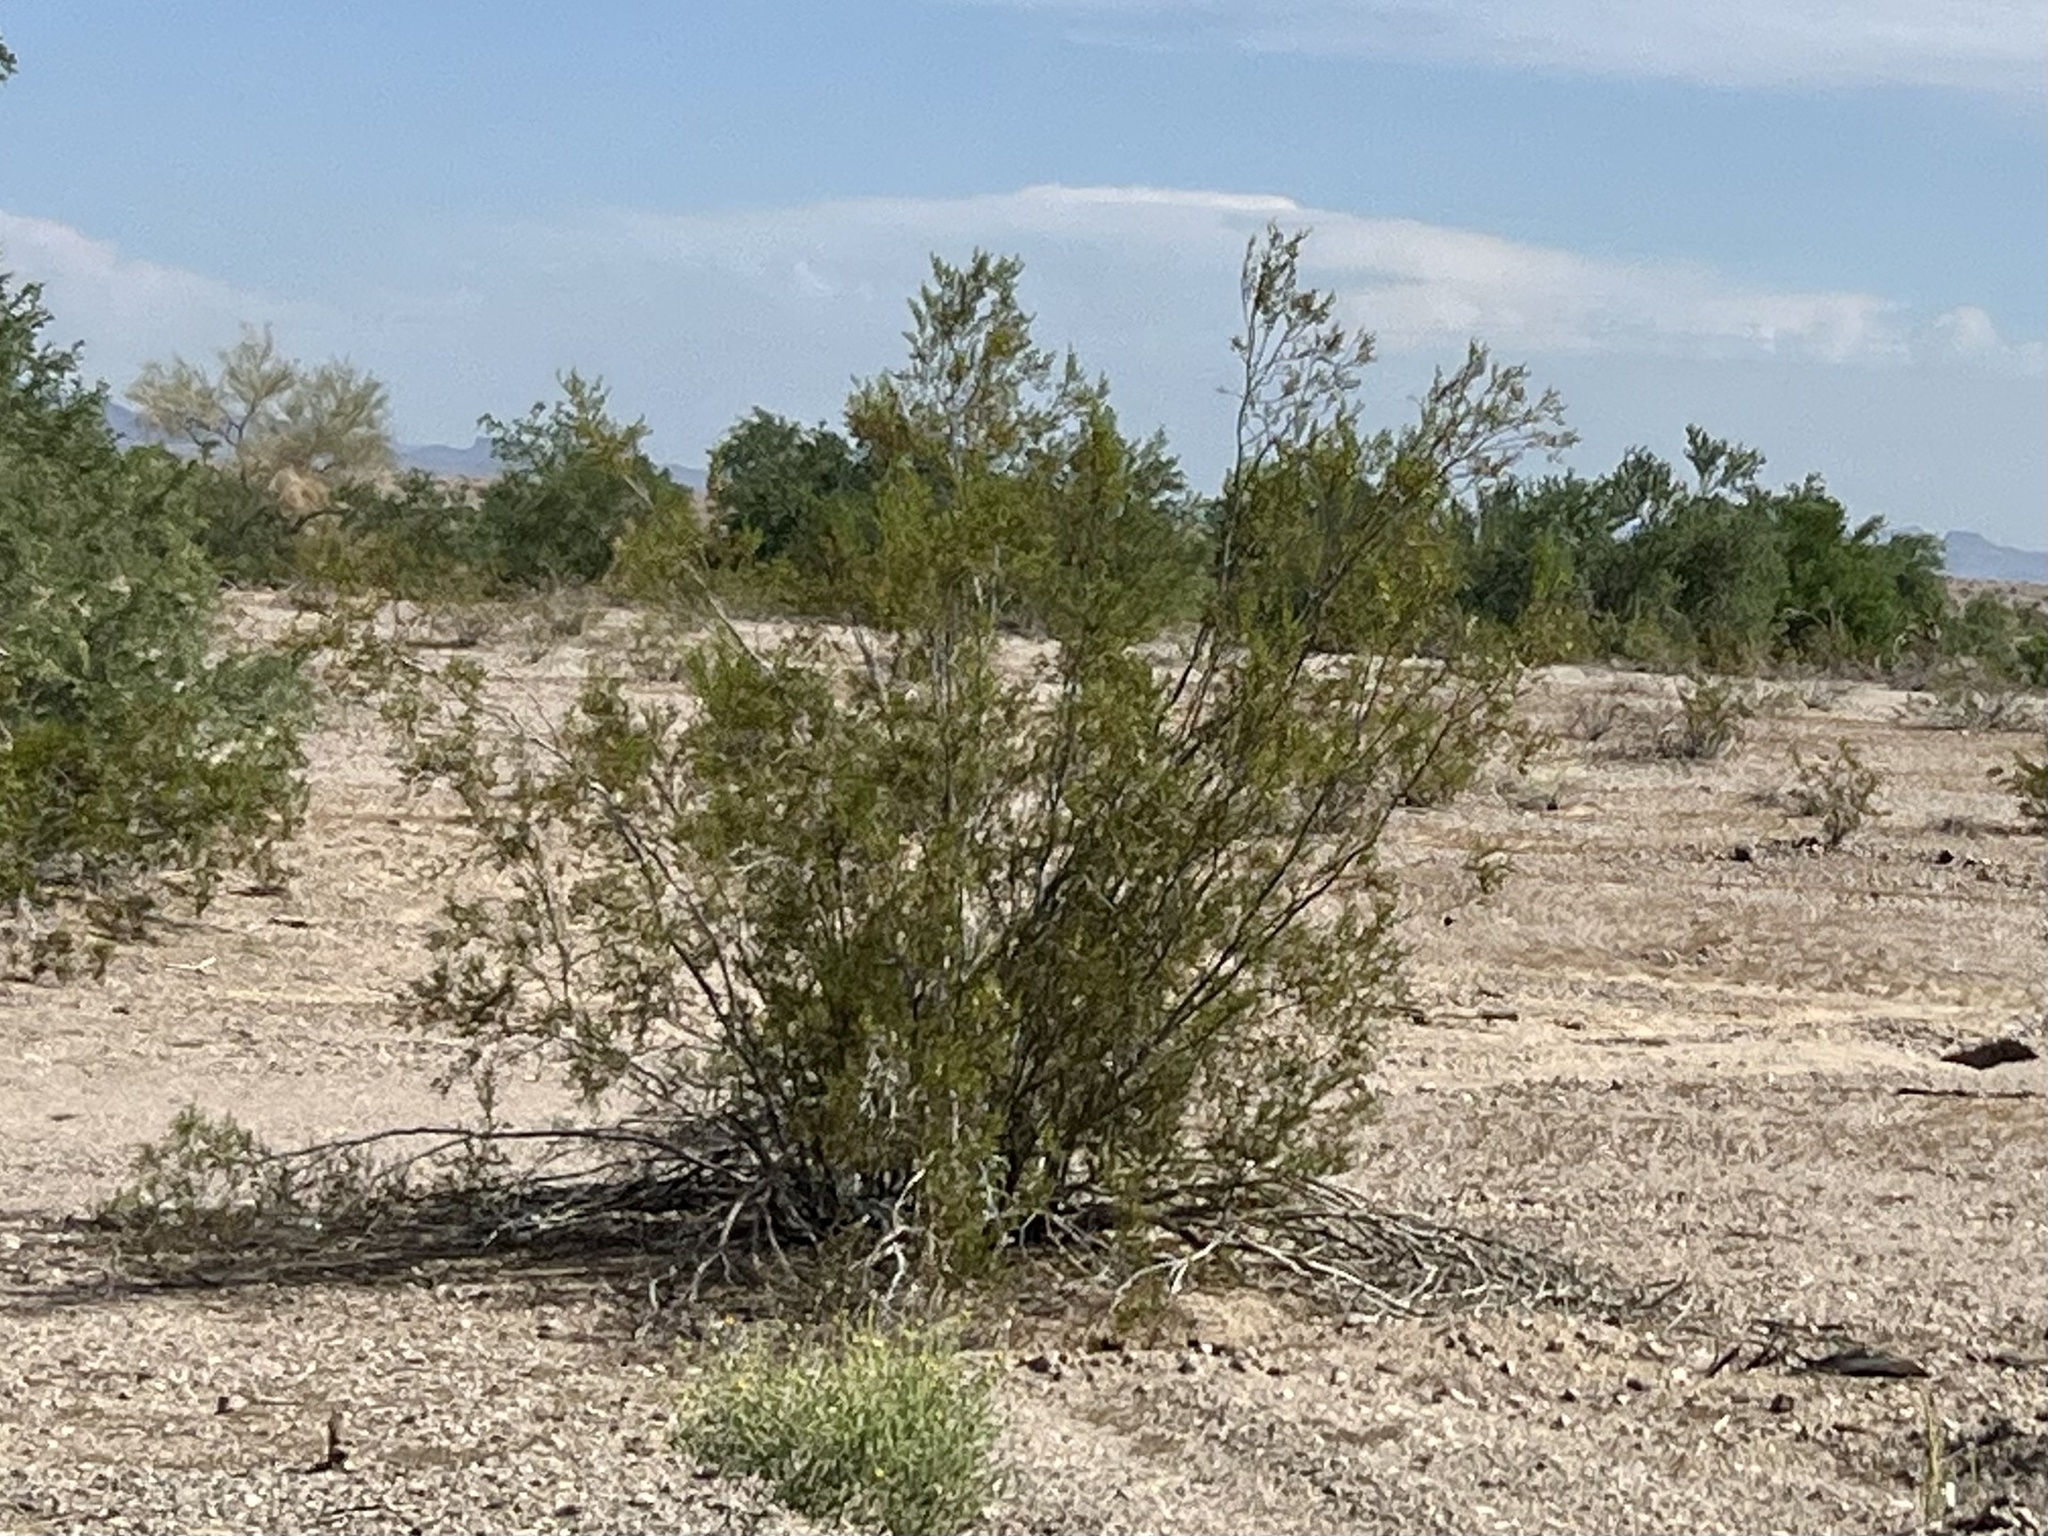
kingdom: Plantae
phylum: Tracheophyta
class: Magnoliopsida
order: Zygophyllales
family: Zygophyllaceae
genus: Larrea
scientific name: Larrea tridentata
